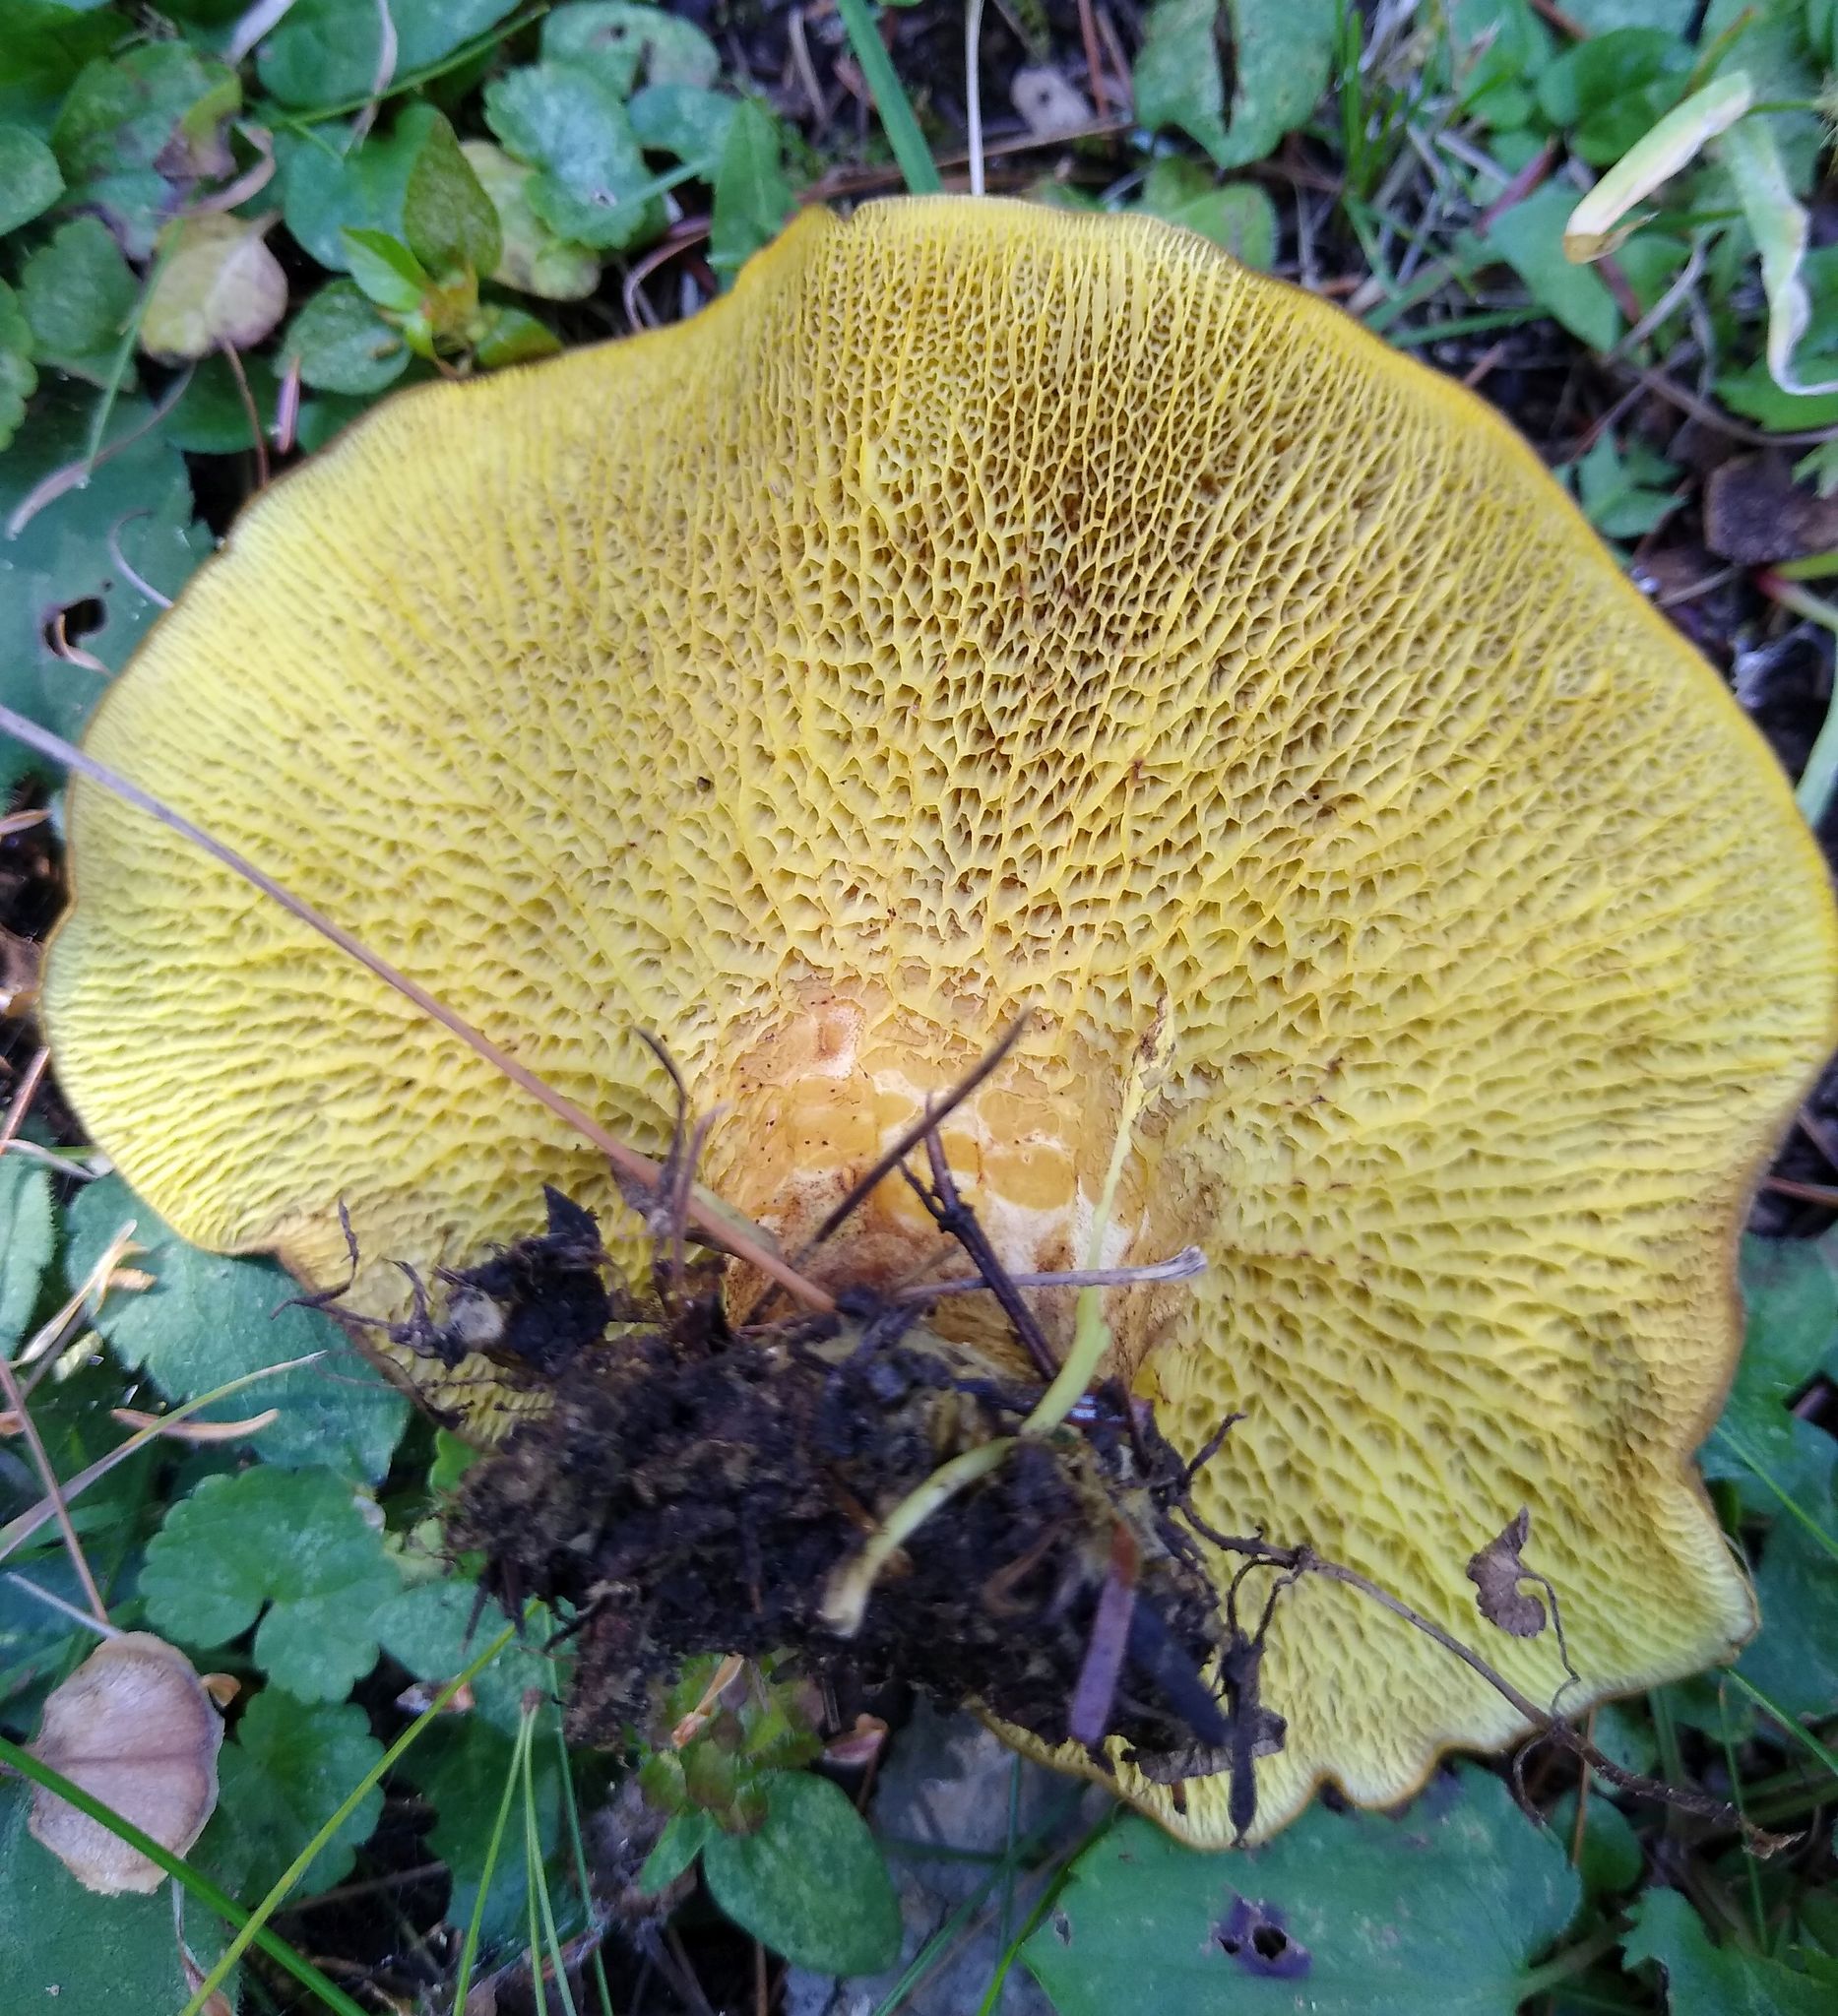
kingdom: Fungi
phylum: Basidiomycota
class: Agaricomycetes
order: Boletales
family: Boletinellaceae
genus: Boletinellus
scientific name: Boletinellus merulioides
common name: Ash tree bolete
